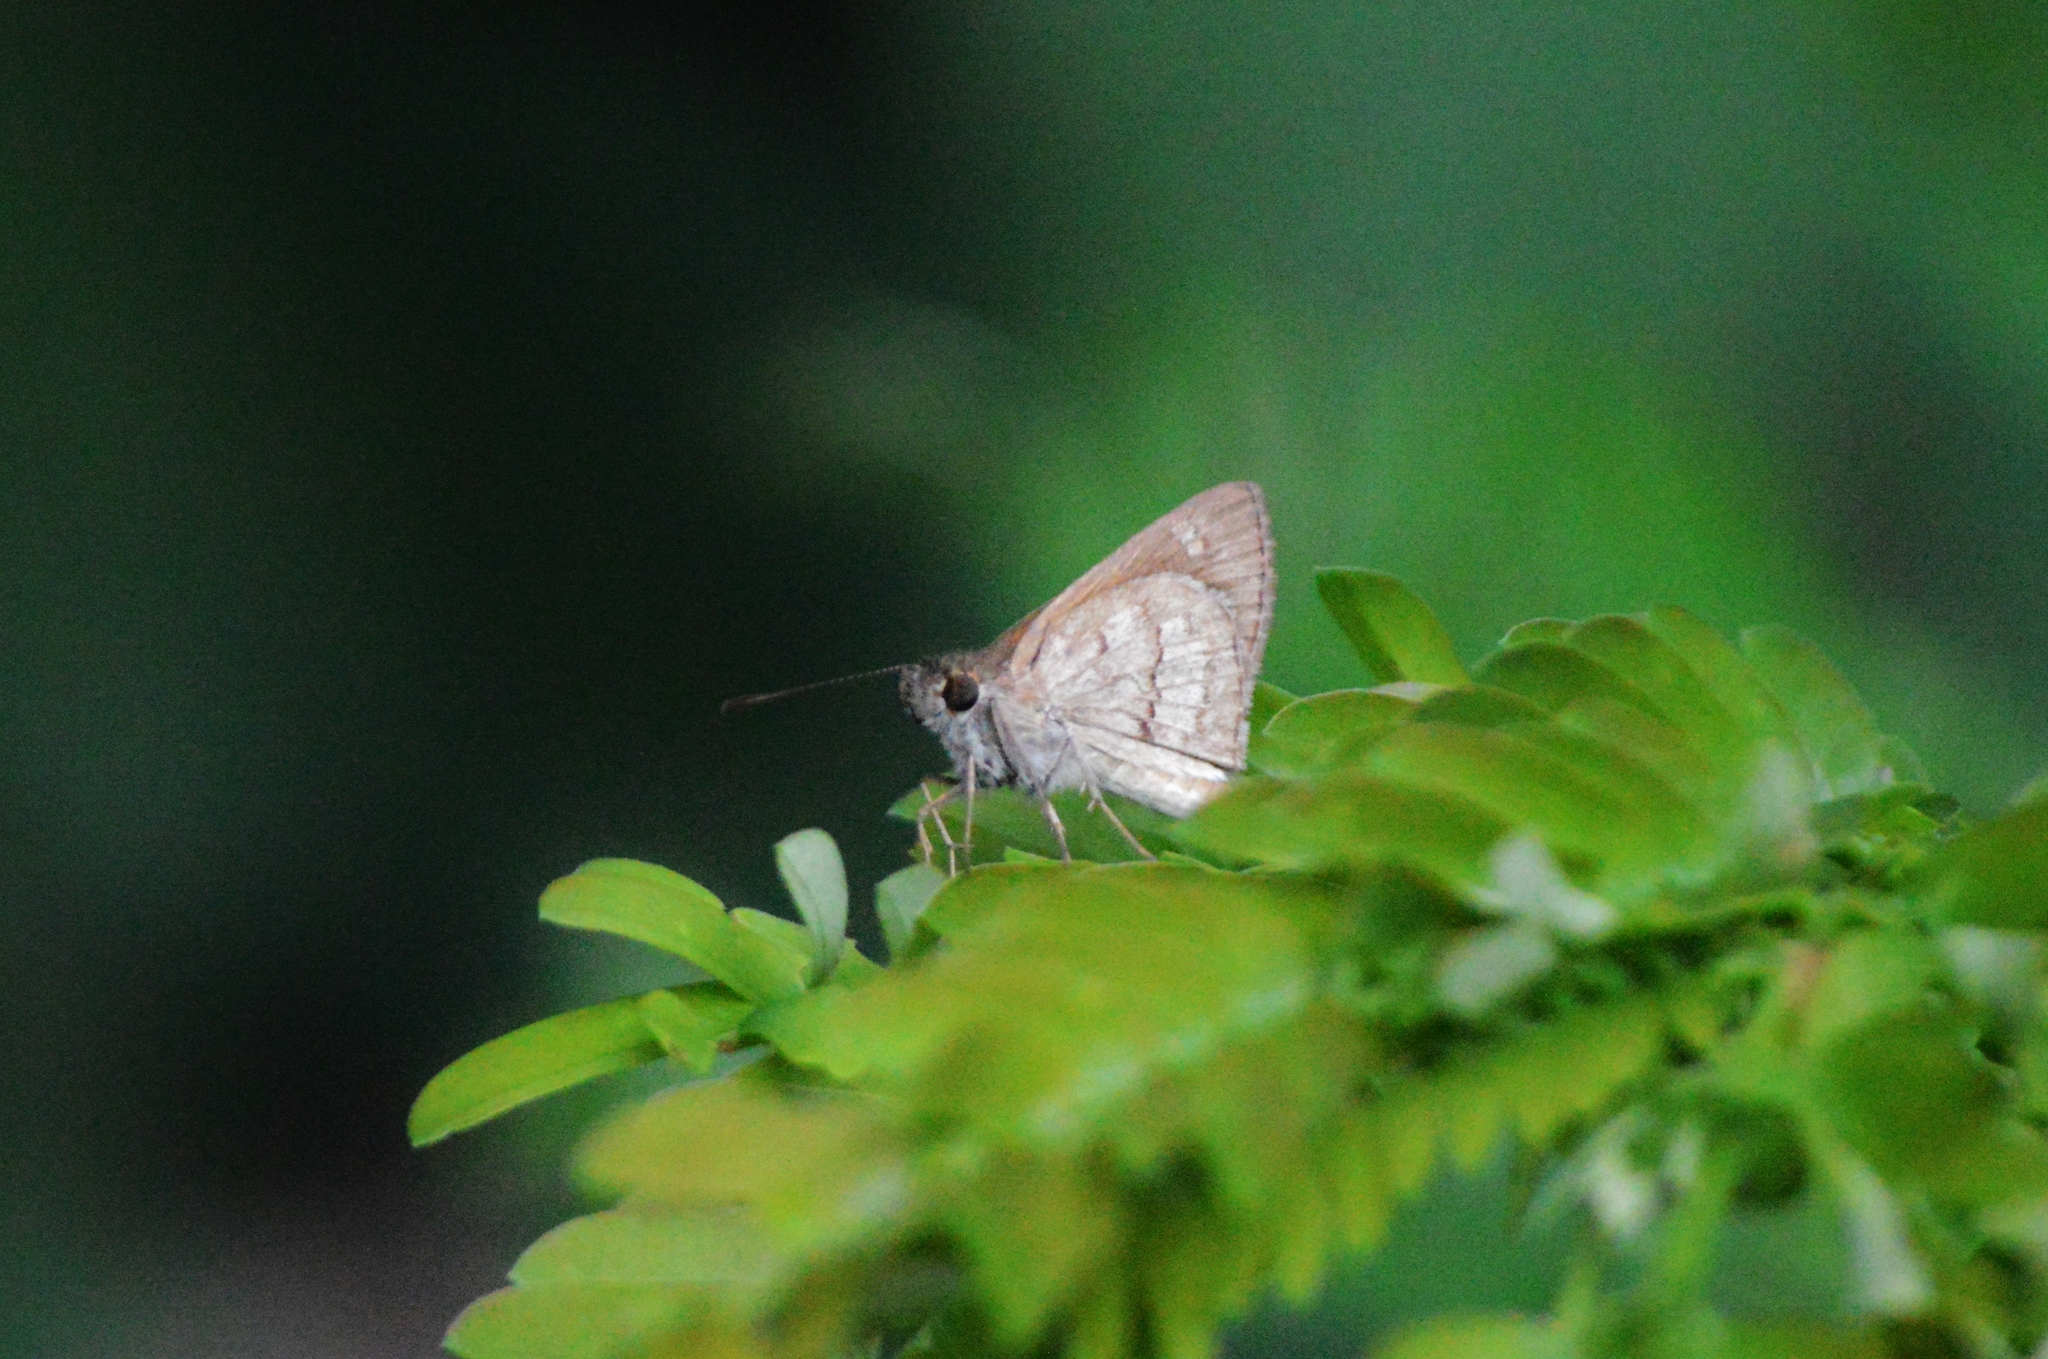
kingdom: Animalia
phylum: Arthropoda
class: Insecta
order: Lepidoptera
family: Hesperiidae
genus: Cymaenes
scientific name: Cymaenes gisca
